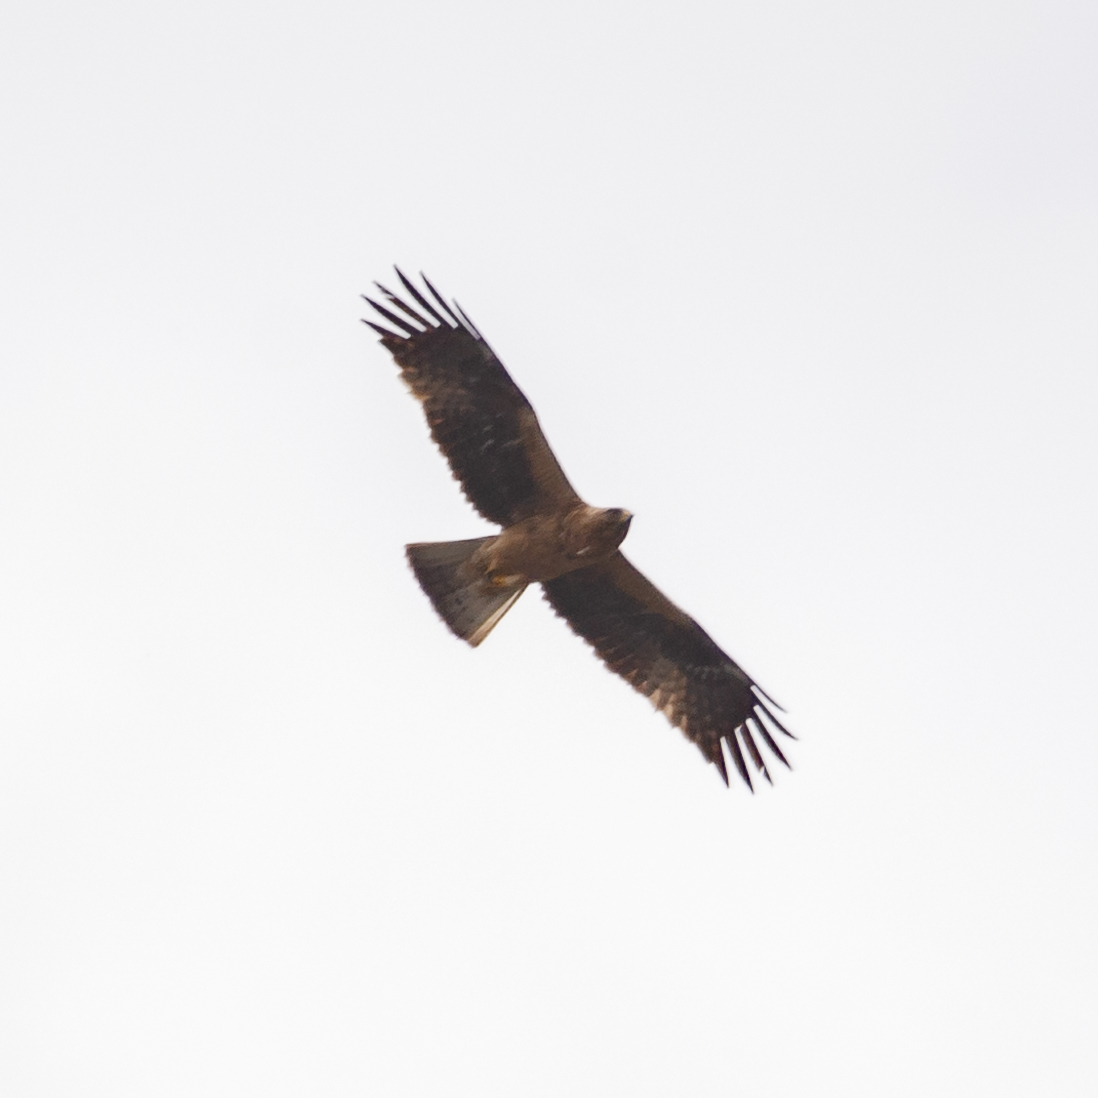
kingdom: Animalia
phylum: Chordata
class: Aves
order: Accipitriformes
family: Accipitridae
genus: Hieraaetus
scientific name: Hieraaetus pennatus
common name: Booted eagle
